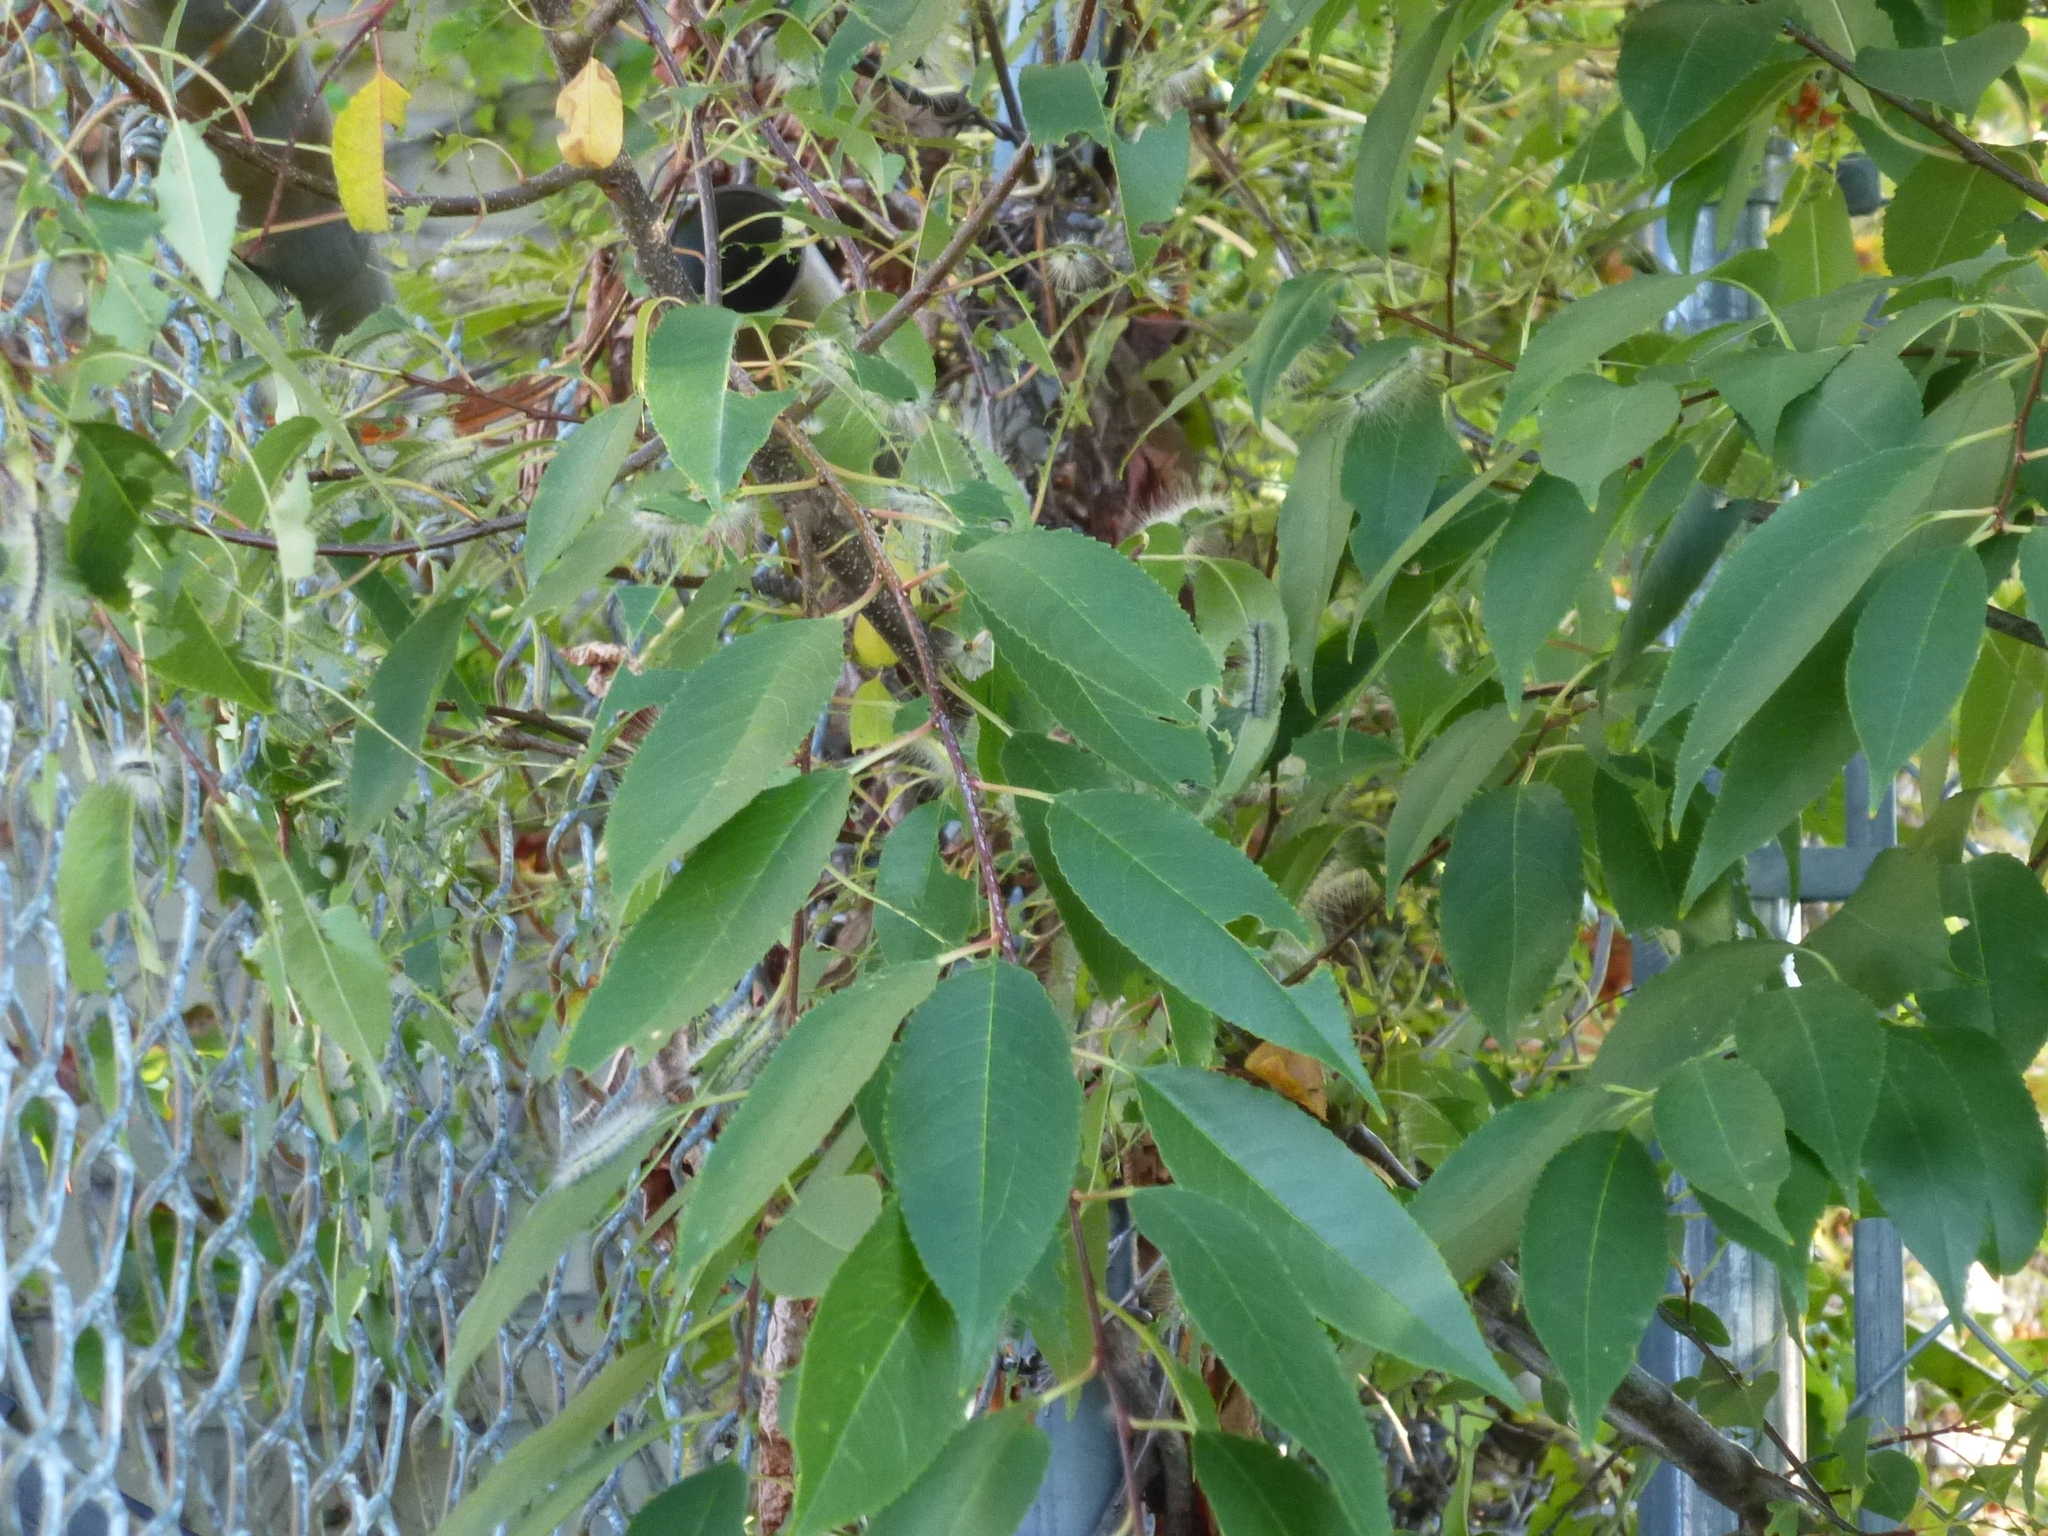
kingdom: Plantae
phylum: Tracheophyta
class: Magnoliopsida
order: Rosales
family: Rosaceae
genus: Prunus
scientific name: Prunus serotina
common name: Black cherry
